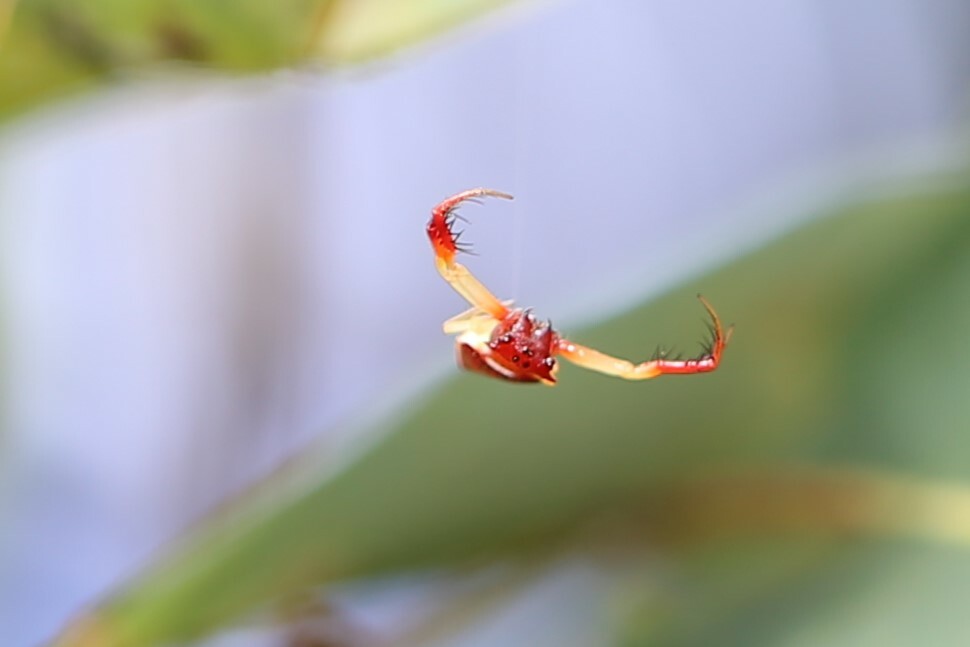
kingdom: Animalia
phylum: Arthropoda
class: Arachnida
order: Araneae
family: Arkyidae
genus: Arkys
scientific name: Arkys cornutus
